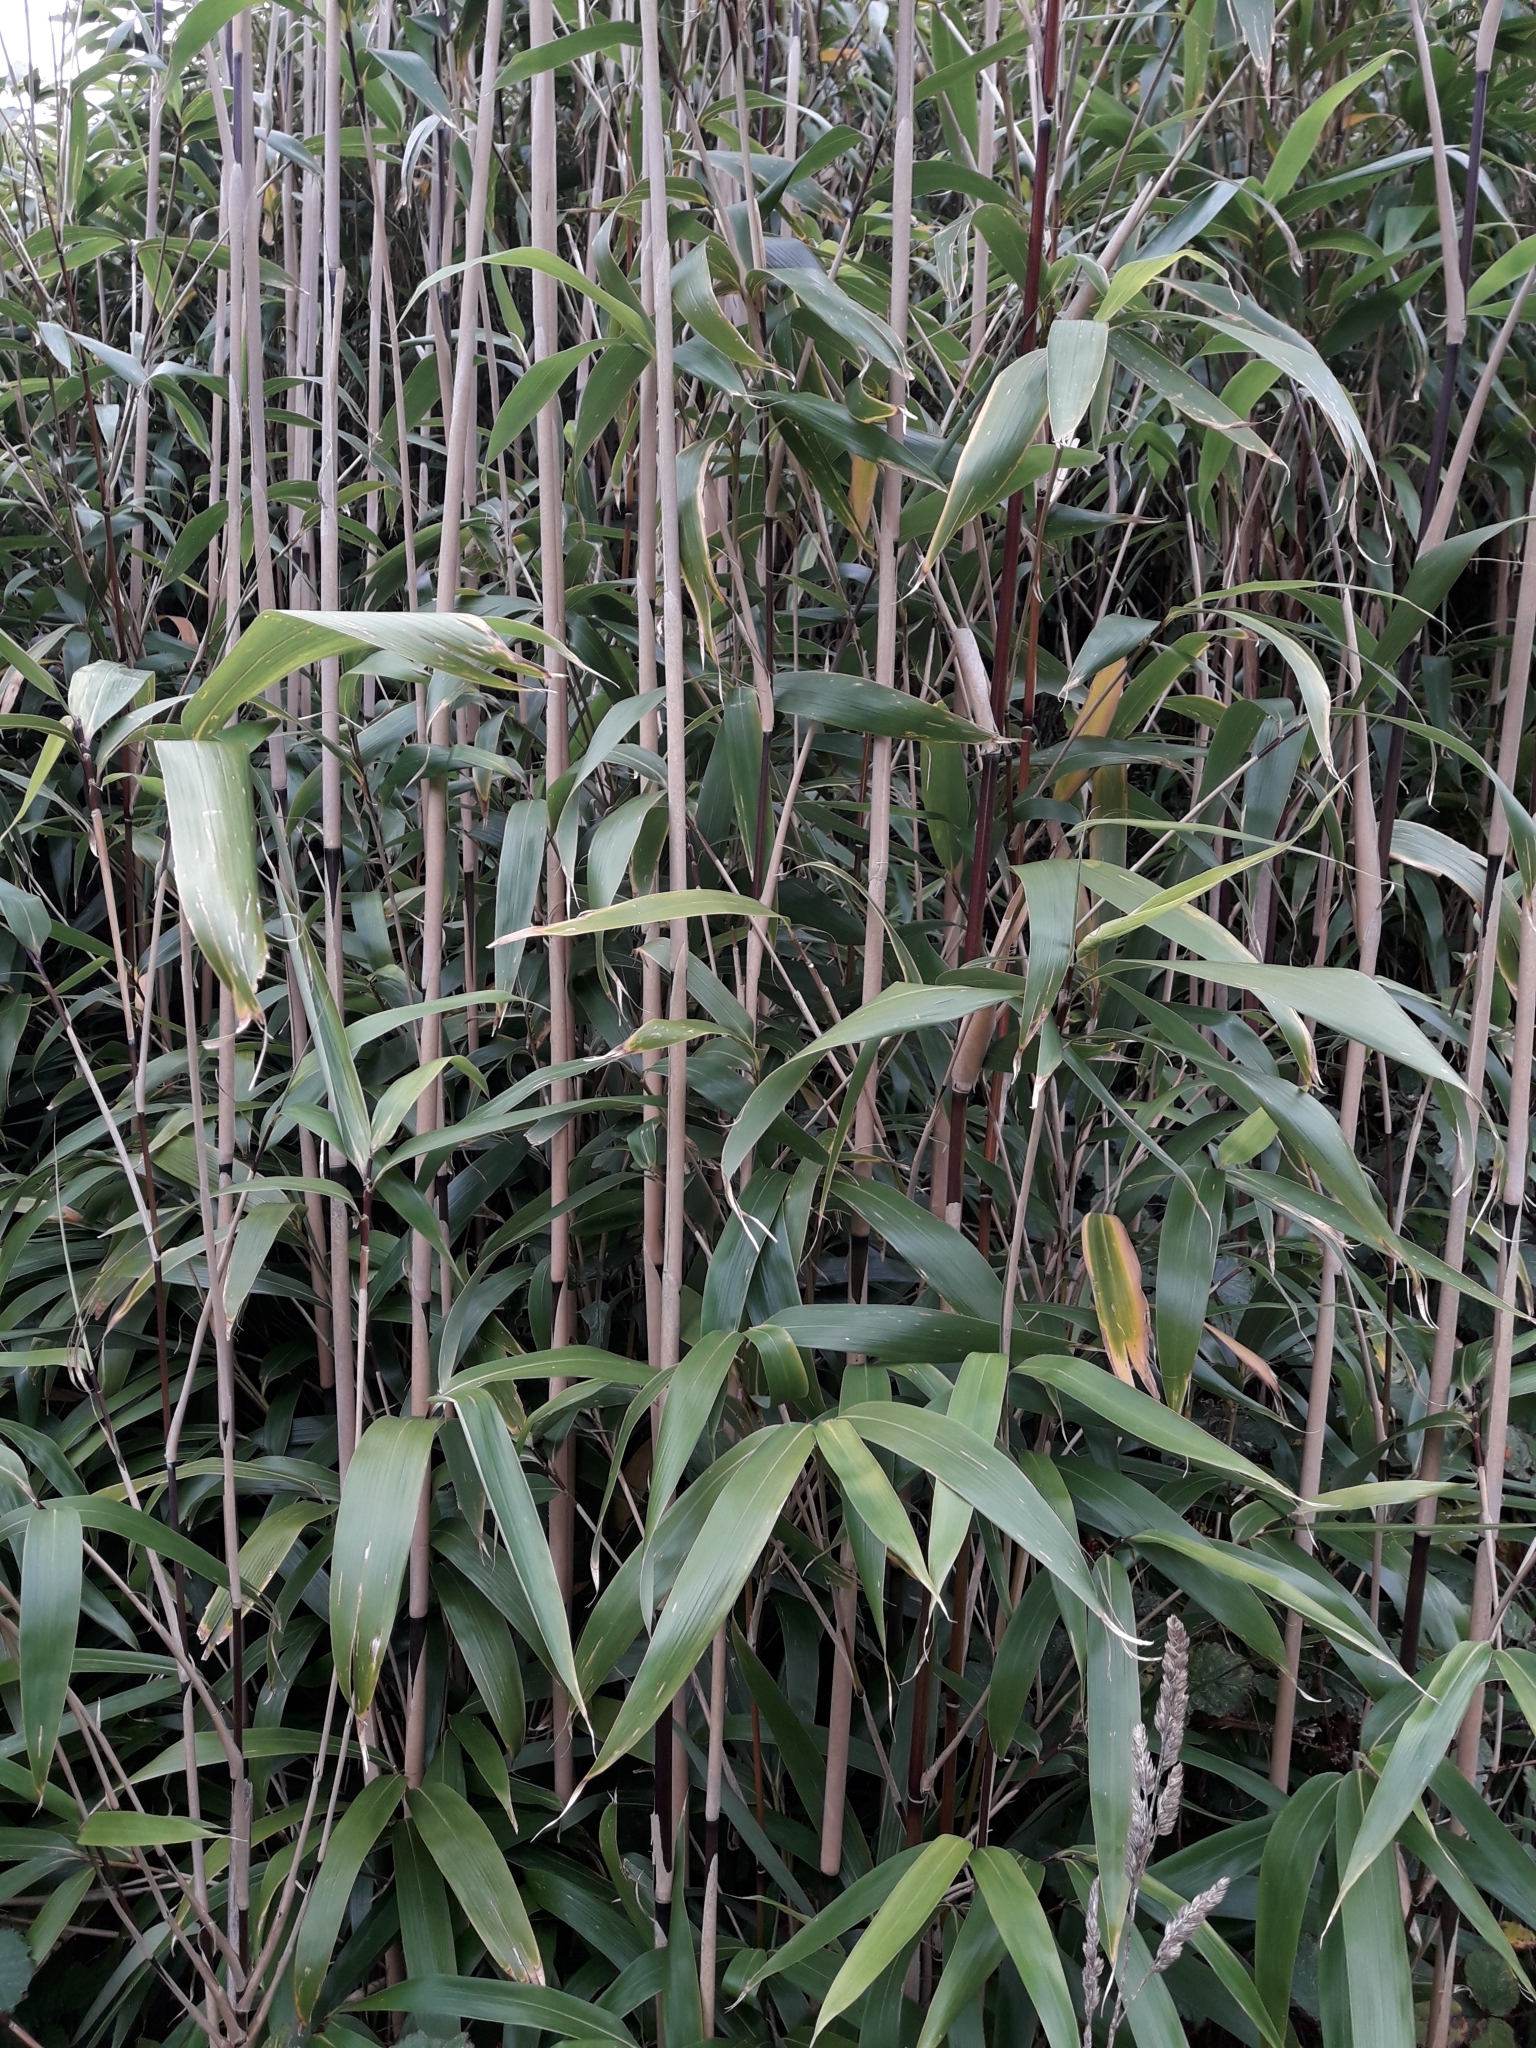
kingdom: Plantae
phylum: Tracheophyta
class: Liliopsida
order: Poales
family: Poaceae
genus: Pseudosasa
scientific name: Pseudosasa japonica
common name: Arrow bamboo
